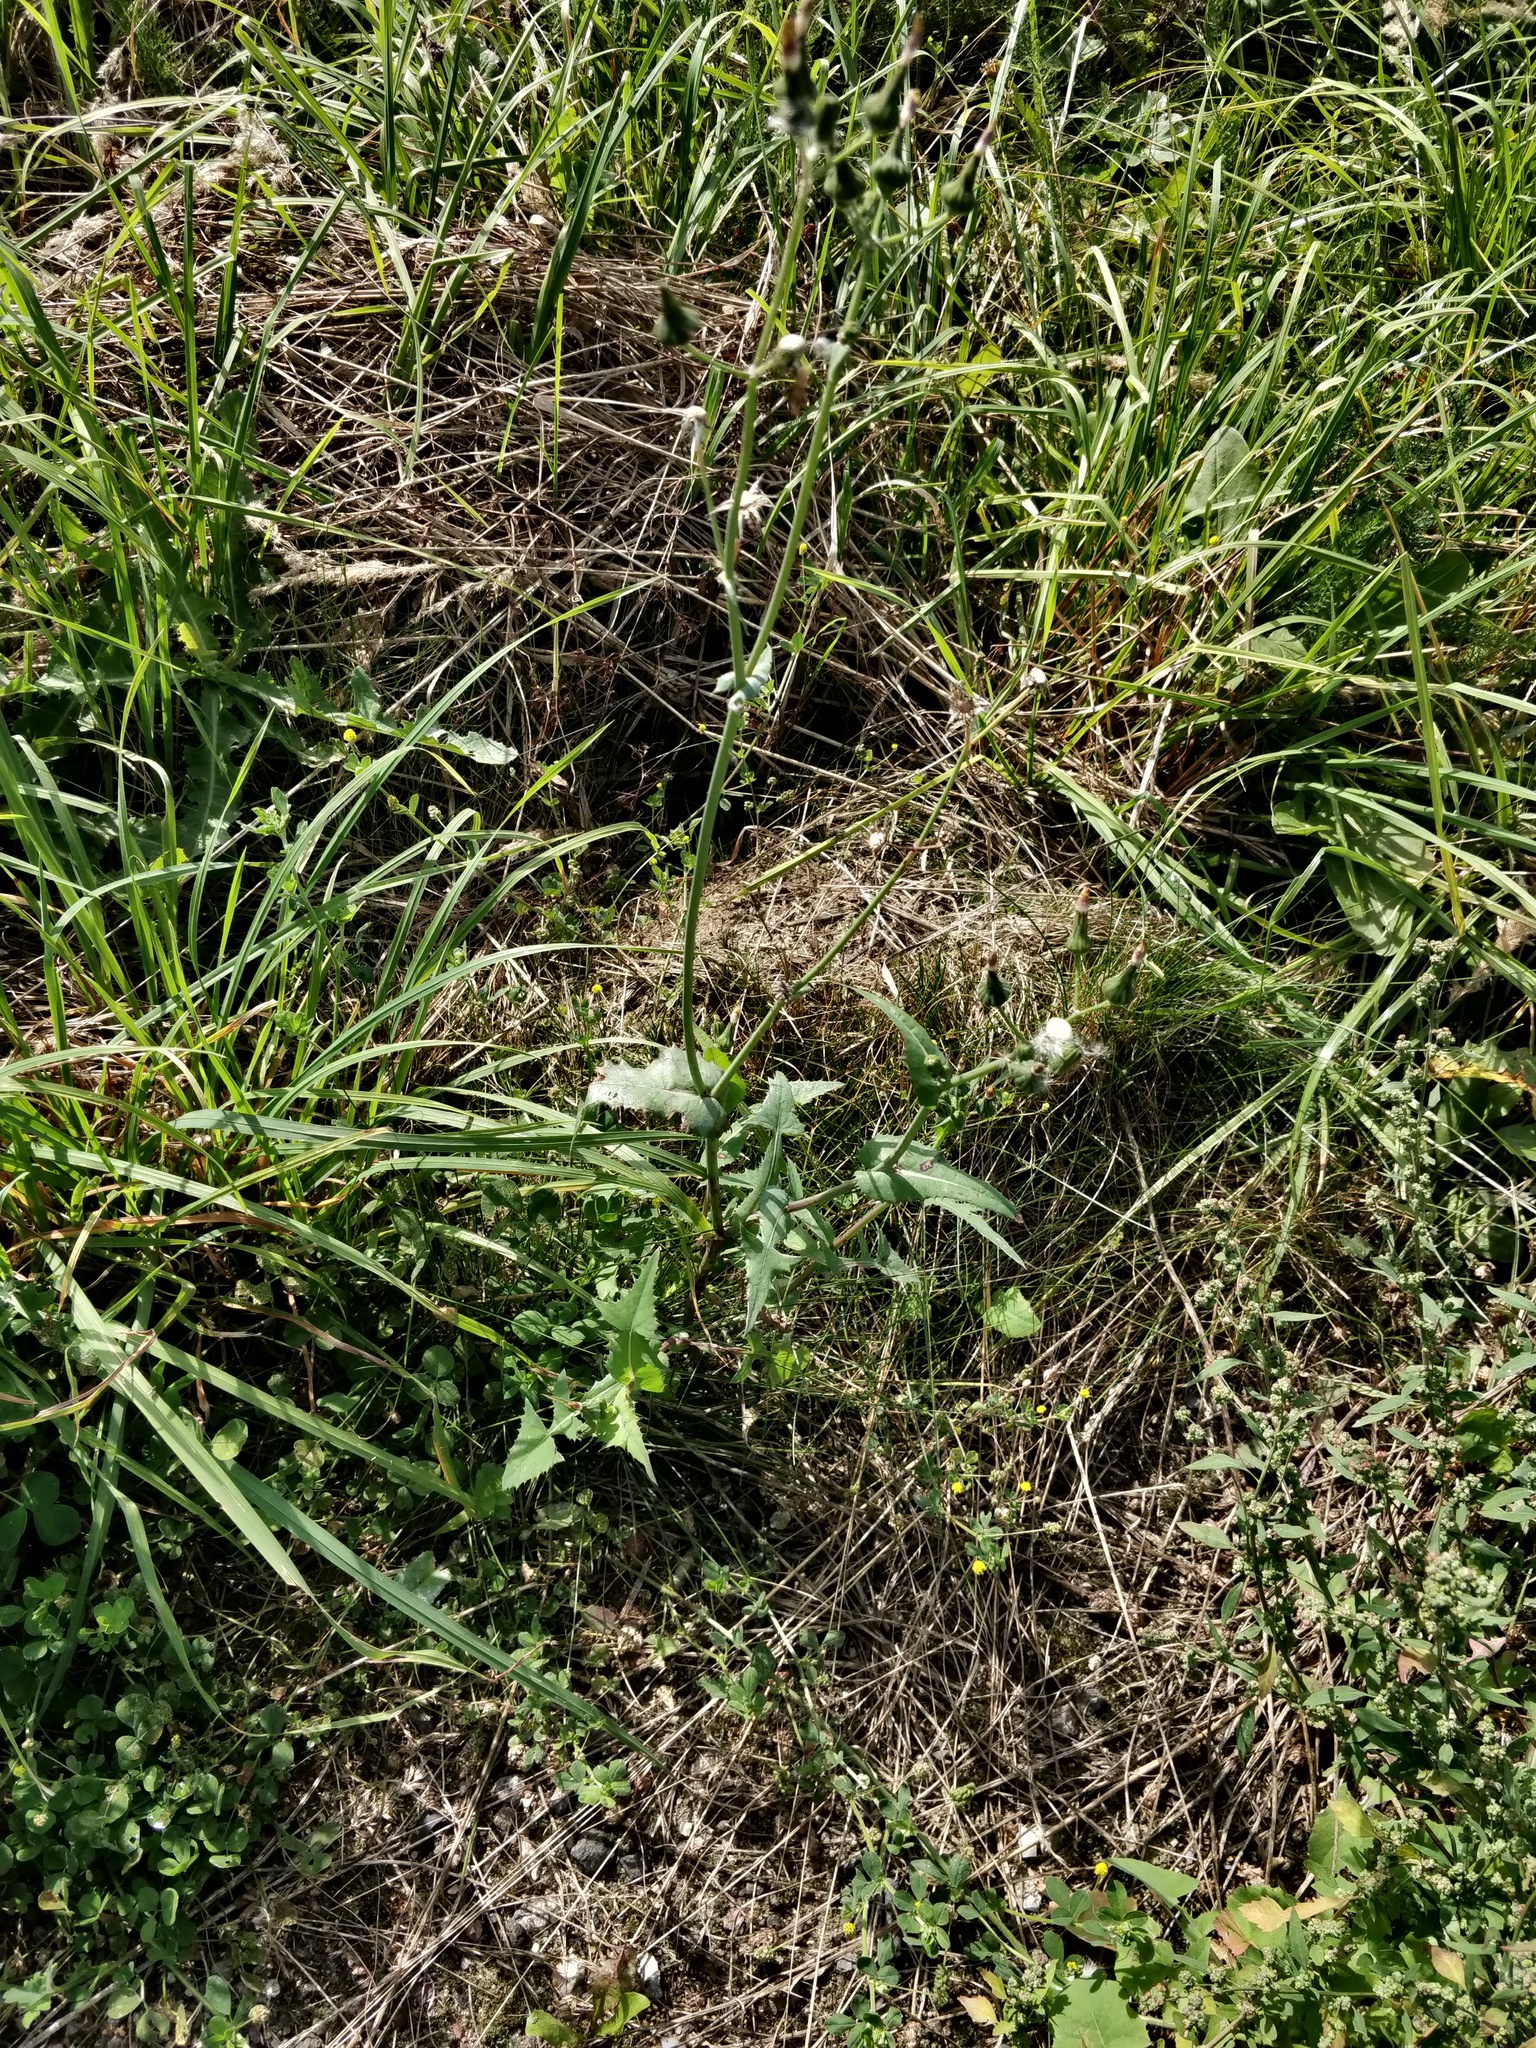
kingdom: Plantae
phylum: Tracheophyta
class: Magnoliopsida
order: Asterales
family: Asteraceae
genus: Sonchus
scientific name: Sonchus oleraceus
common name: Common sowthistle
